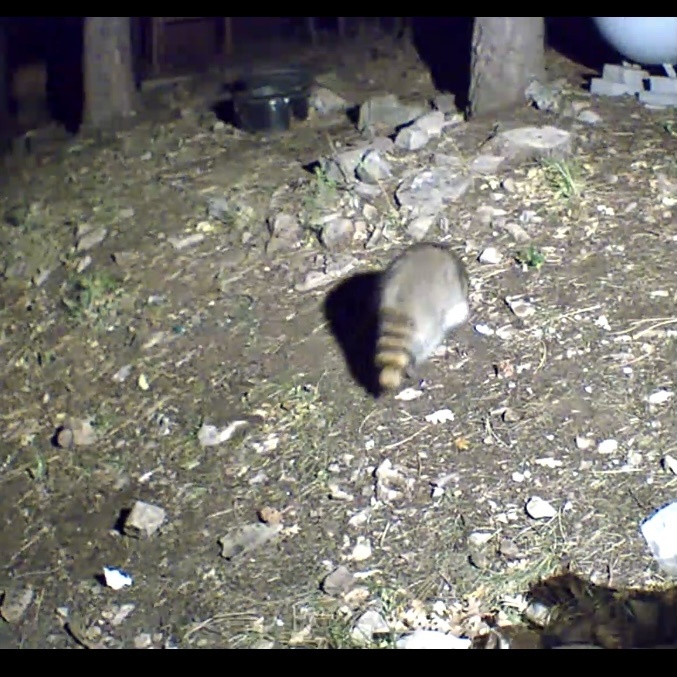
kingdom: Animalia
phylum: Chordata
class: Mammalia
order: Carnivora
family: Procyonidae
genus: Procyon
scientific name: Procyon lotor
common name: Raccoon
